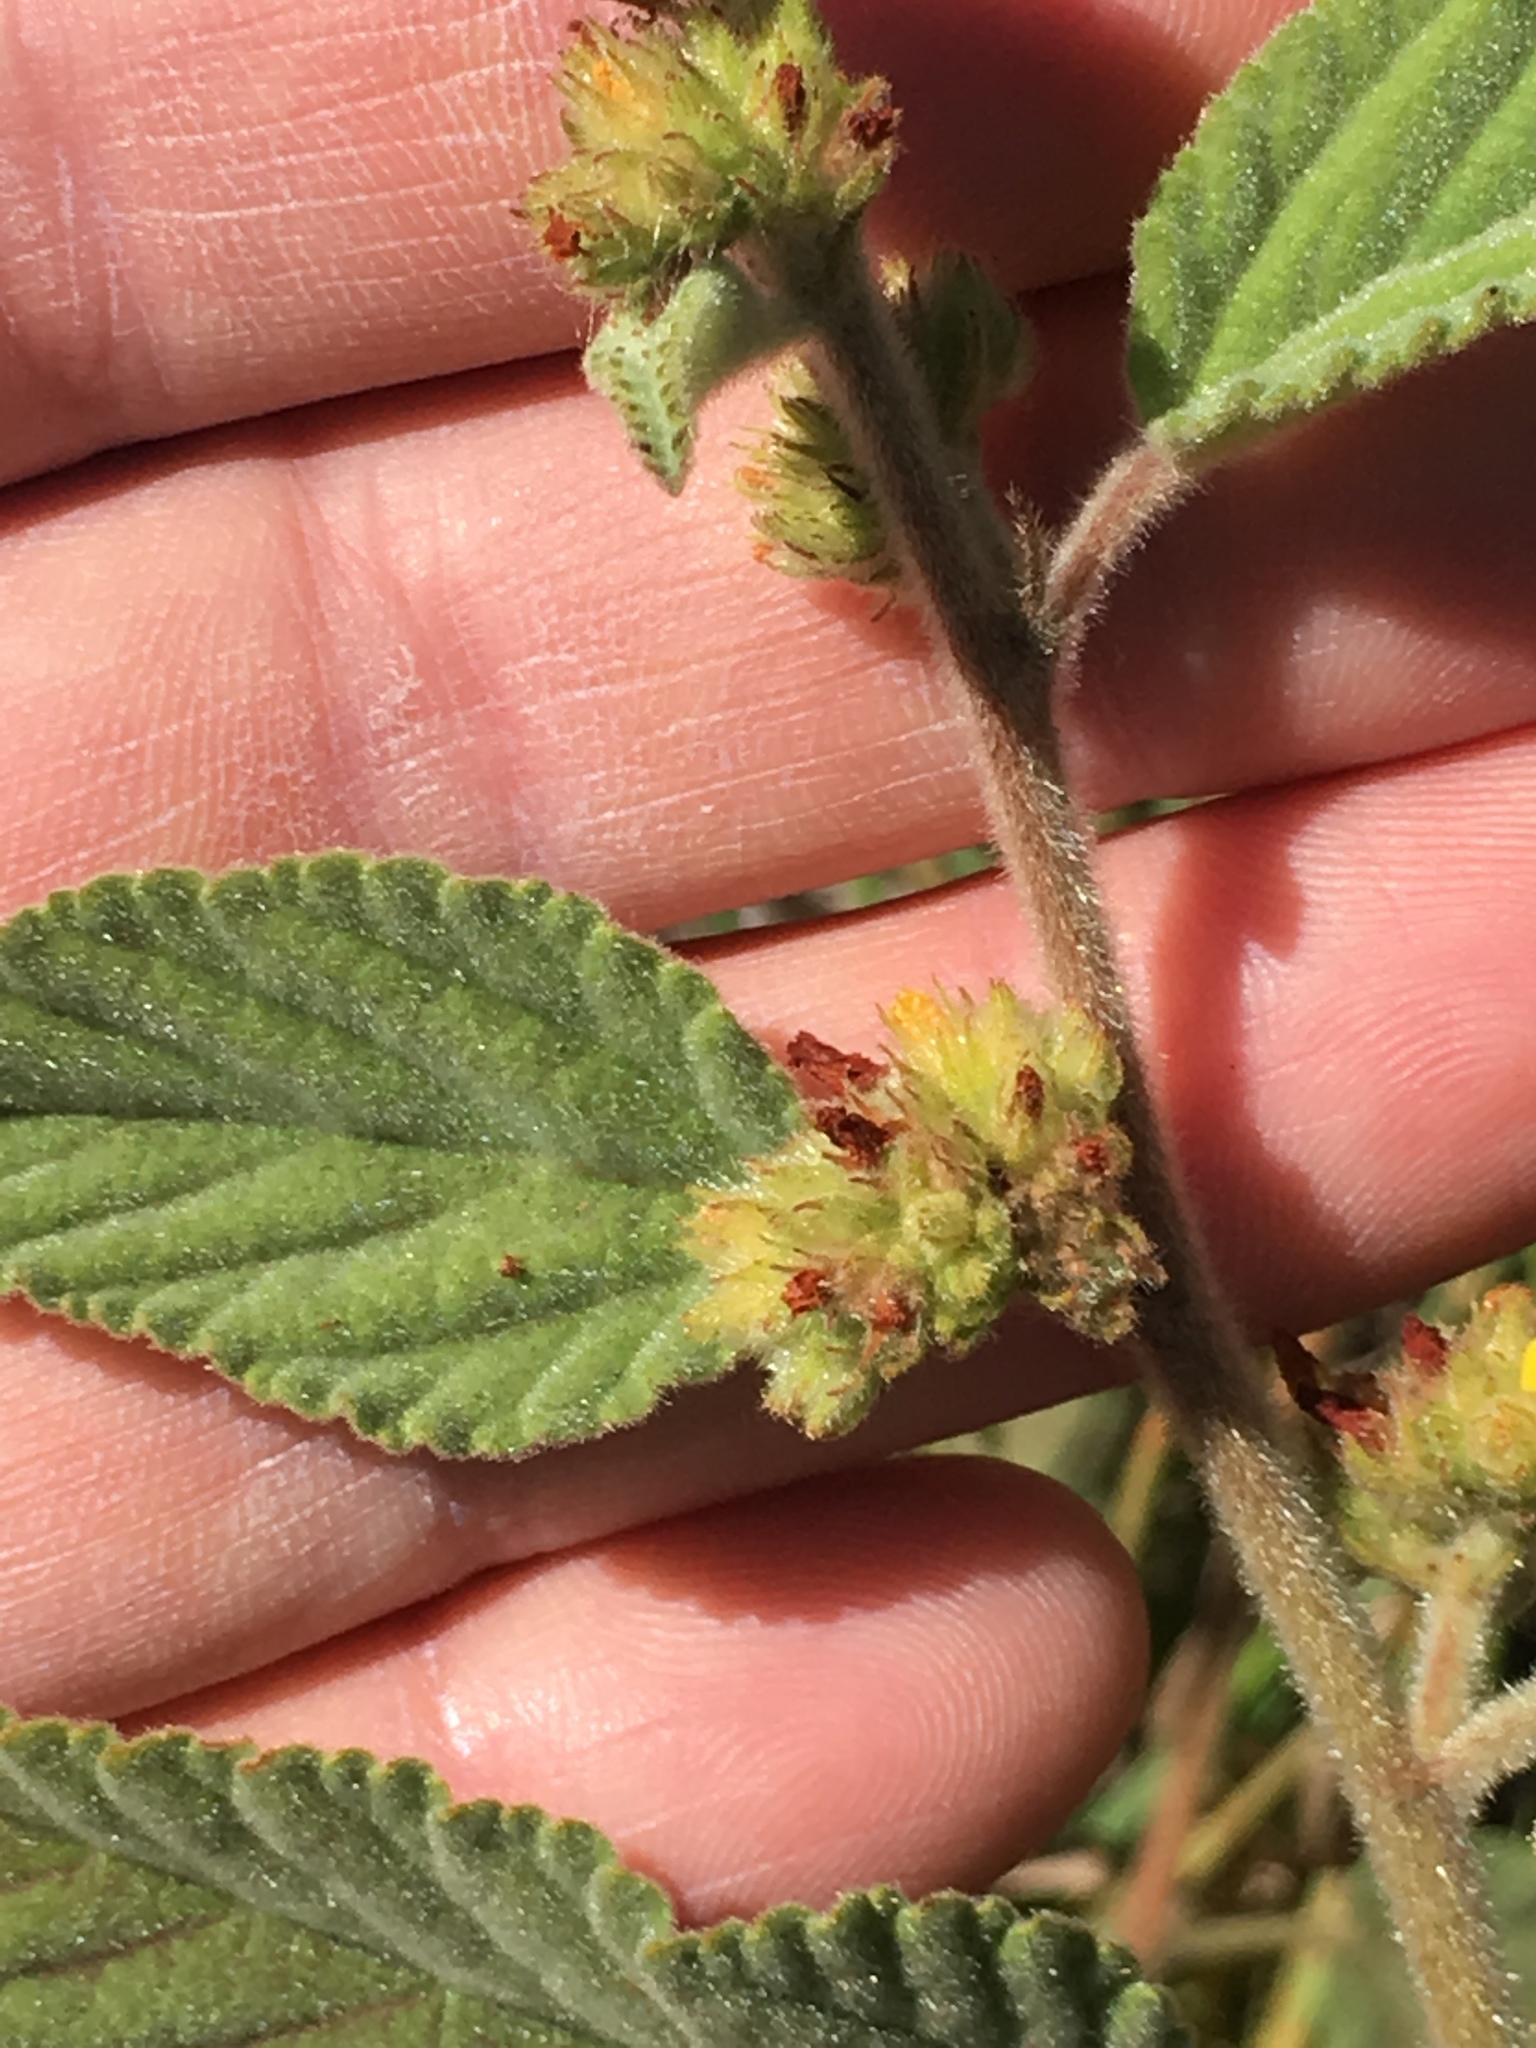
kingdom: Plantae
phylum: Tracheophyta
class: Magnoliopsida
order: Malvales
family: Malvaceae
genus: Waltheria
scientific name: Waltheria indica
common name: Leather-coat
